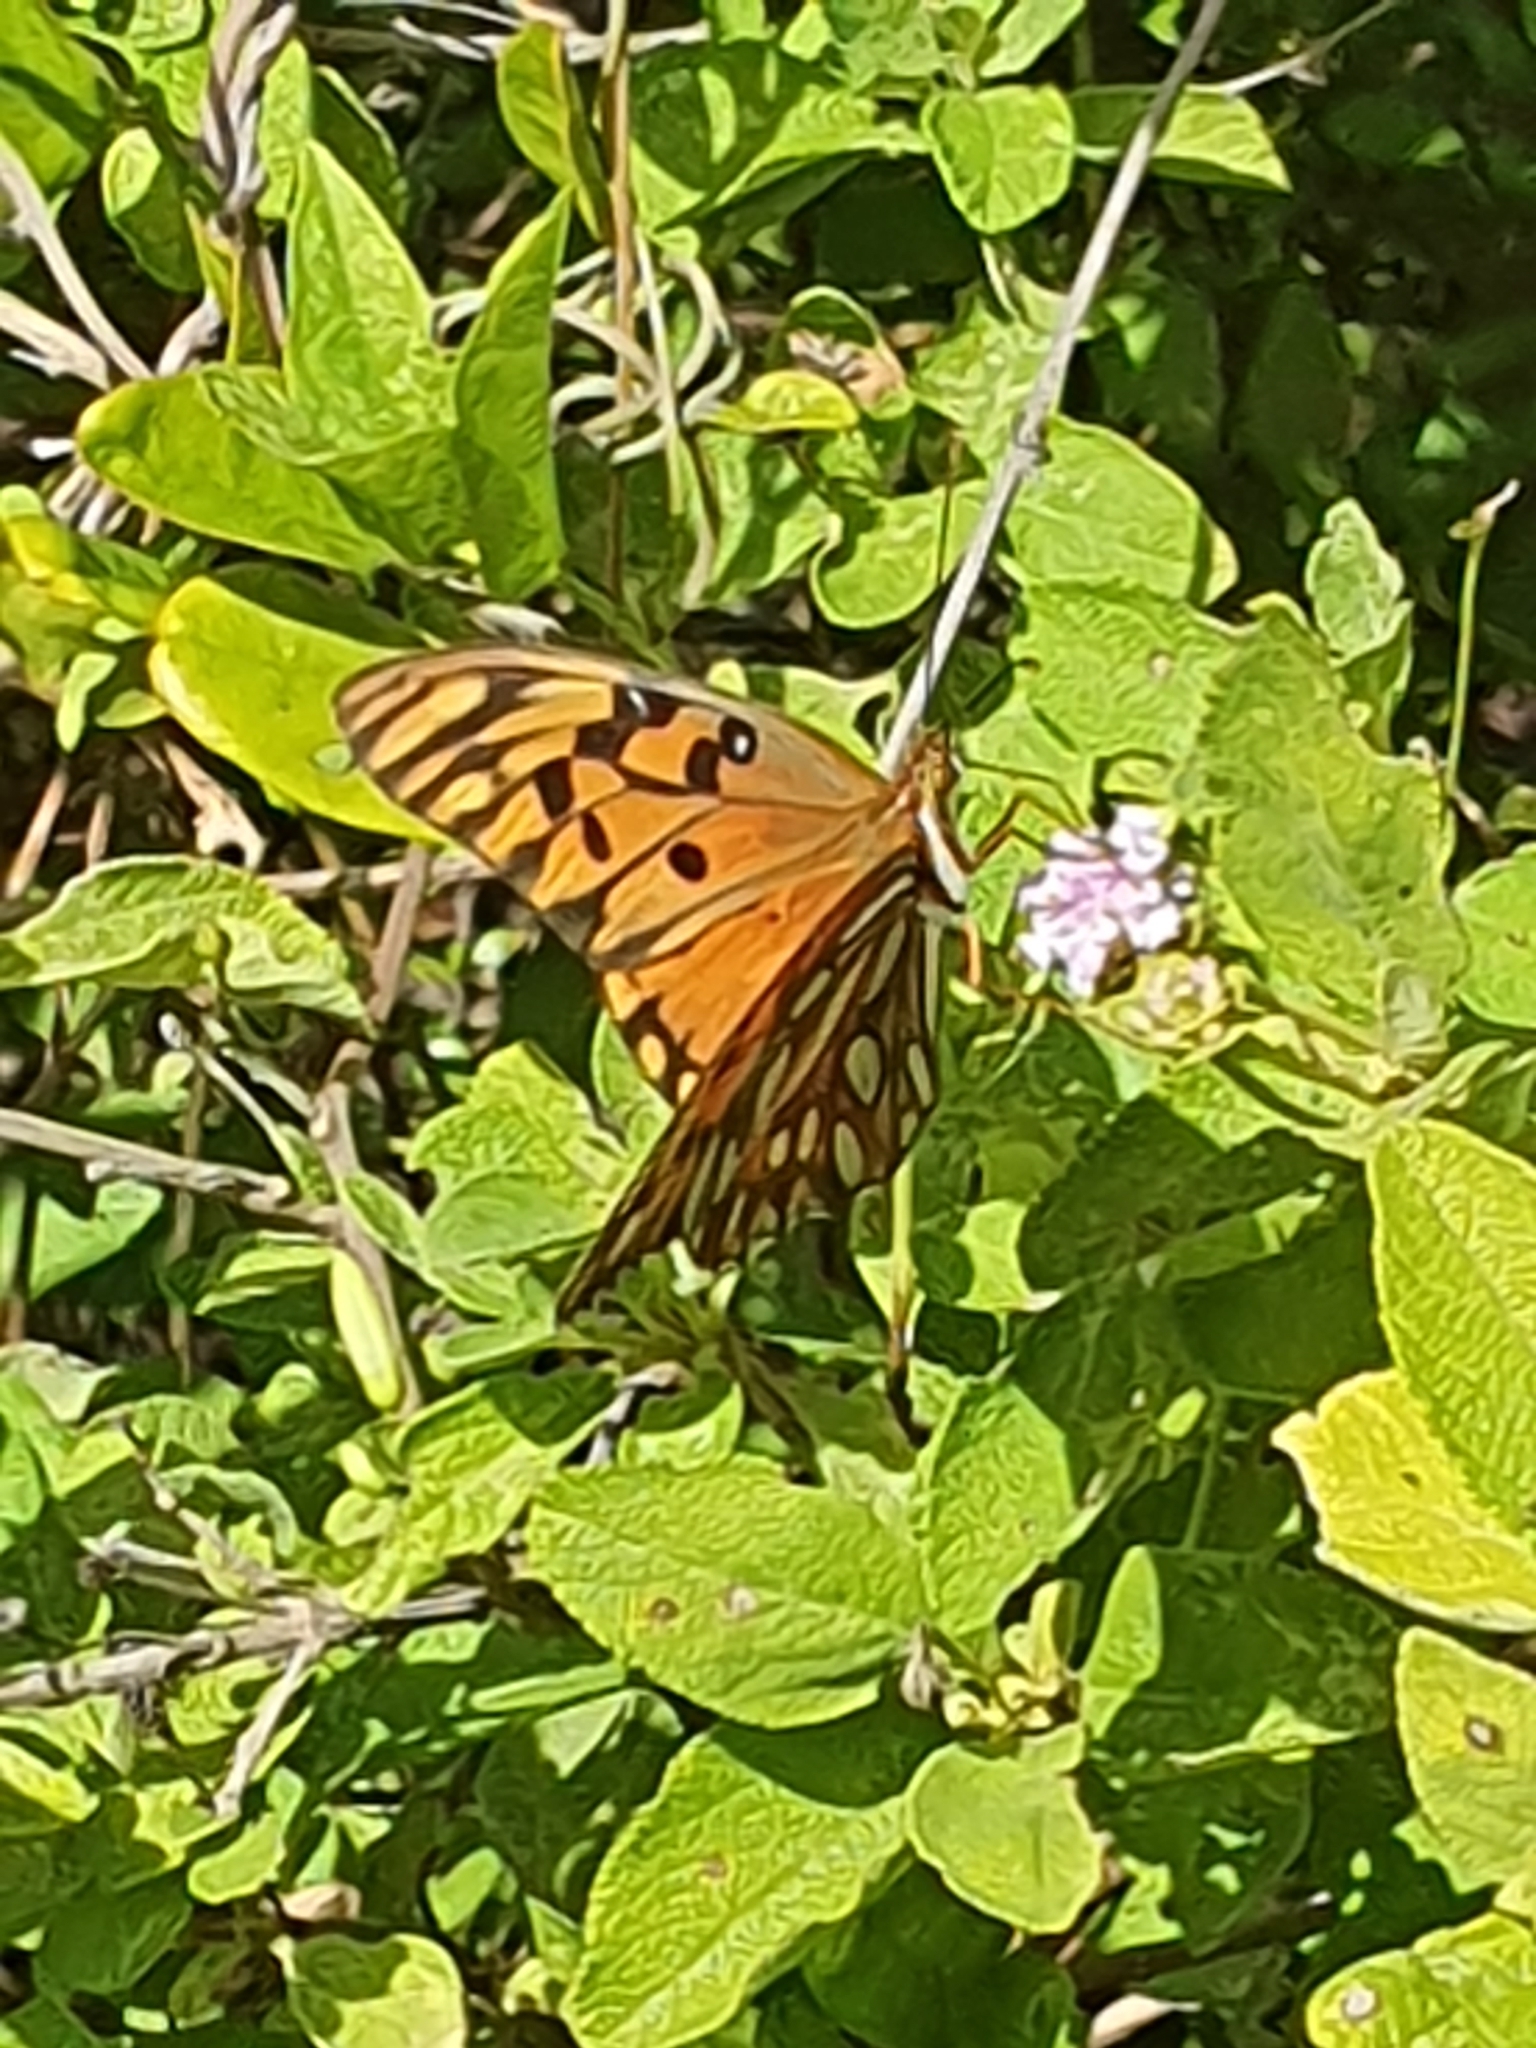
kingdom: Animalia
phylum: Arthropoda
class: Insecta
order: Lepidoptera
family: Nymphalidae
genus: Dione
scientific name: Dione vanillae
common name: Gulf fritillary
